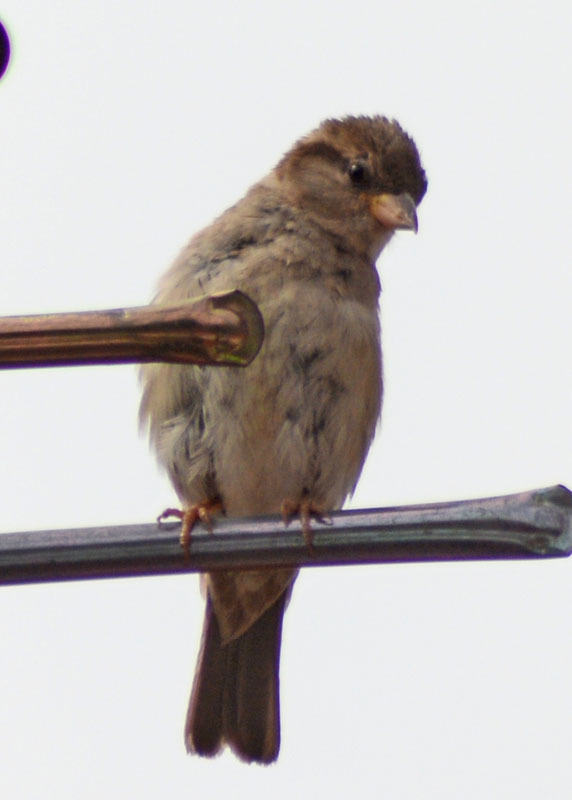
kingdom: Animalia
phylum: Chordata
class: Aves
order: Passeriformes
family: Passeridae
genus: Passer
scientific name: Passer domesticus
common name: House sparrow
